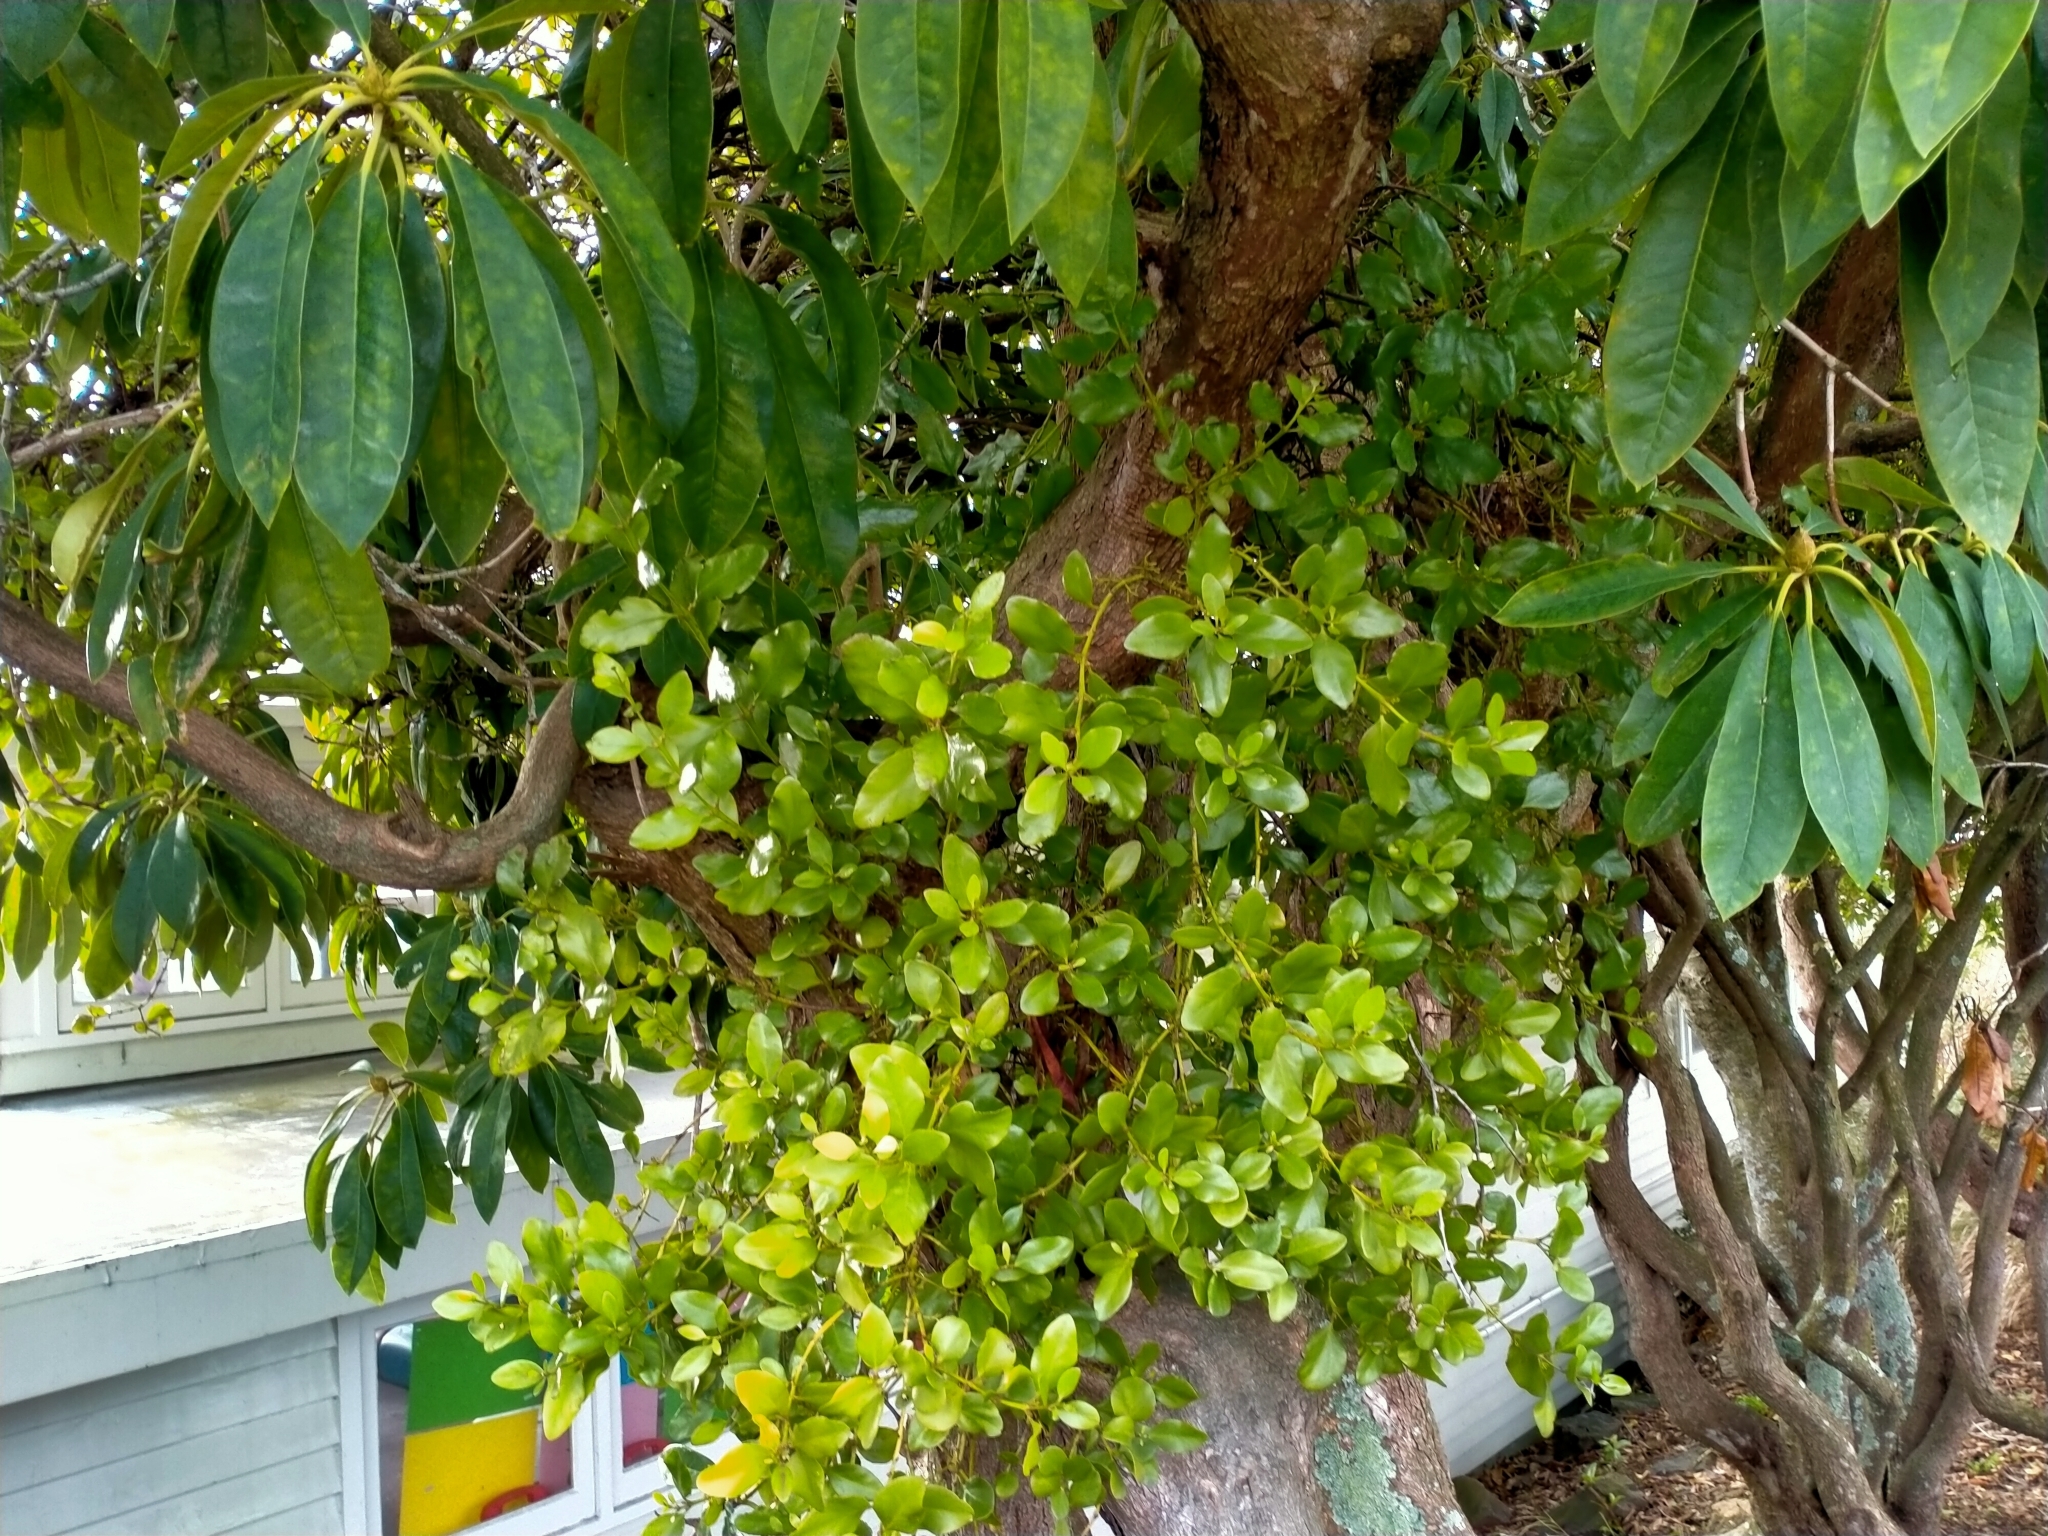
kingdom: Plantae
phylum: Tracheophyta
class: Magnoliopsida
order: Santalales
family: Loranthaceae
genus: Ileostylus
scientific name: Ileostylus micranthus
